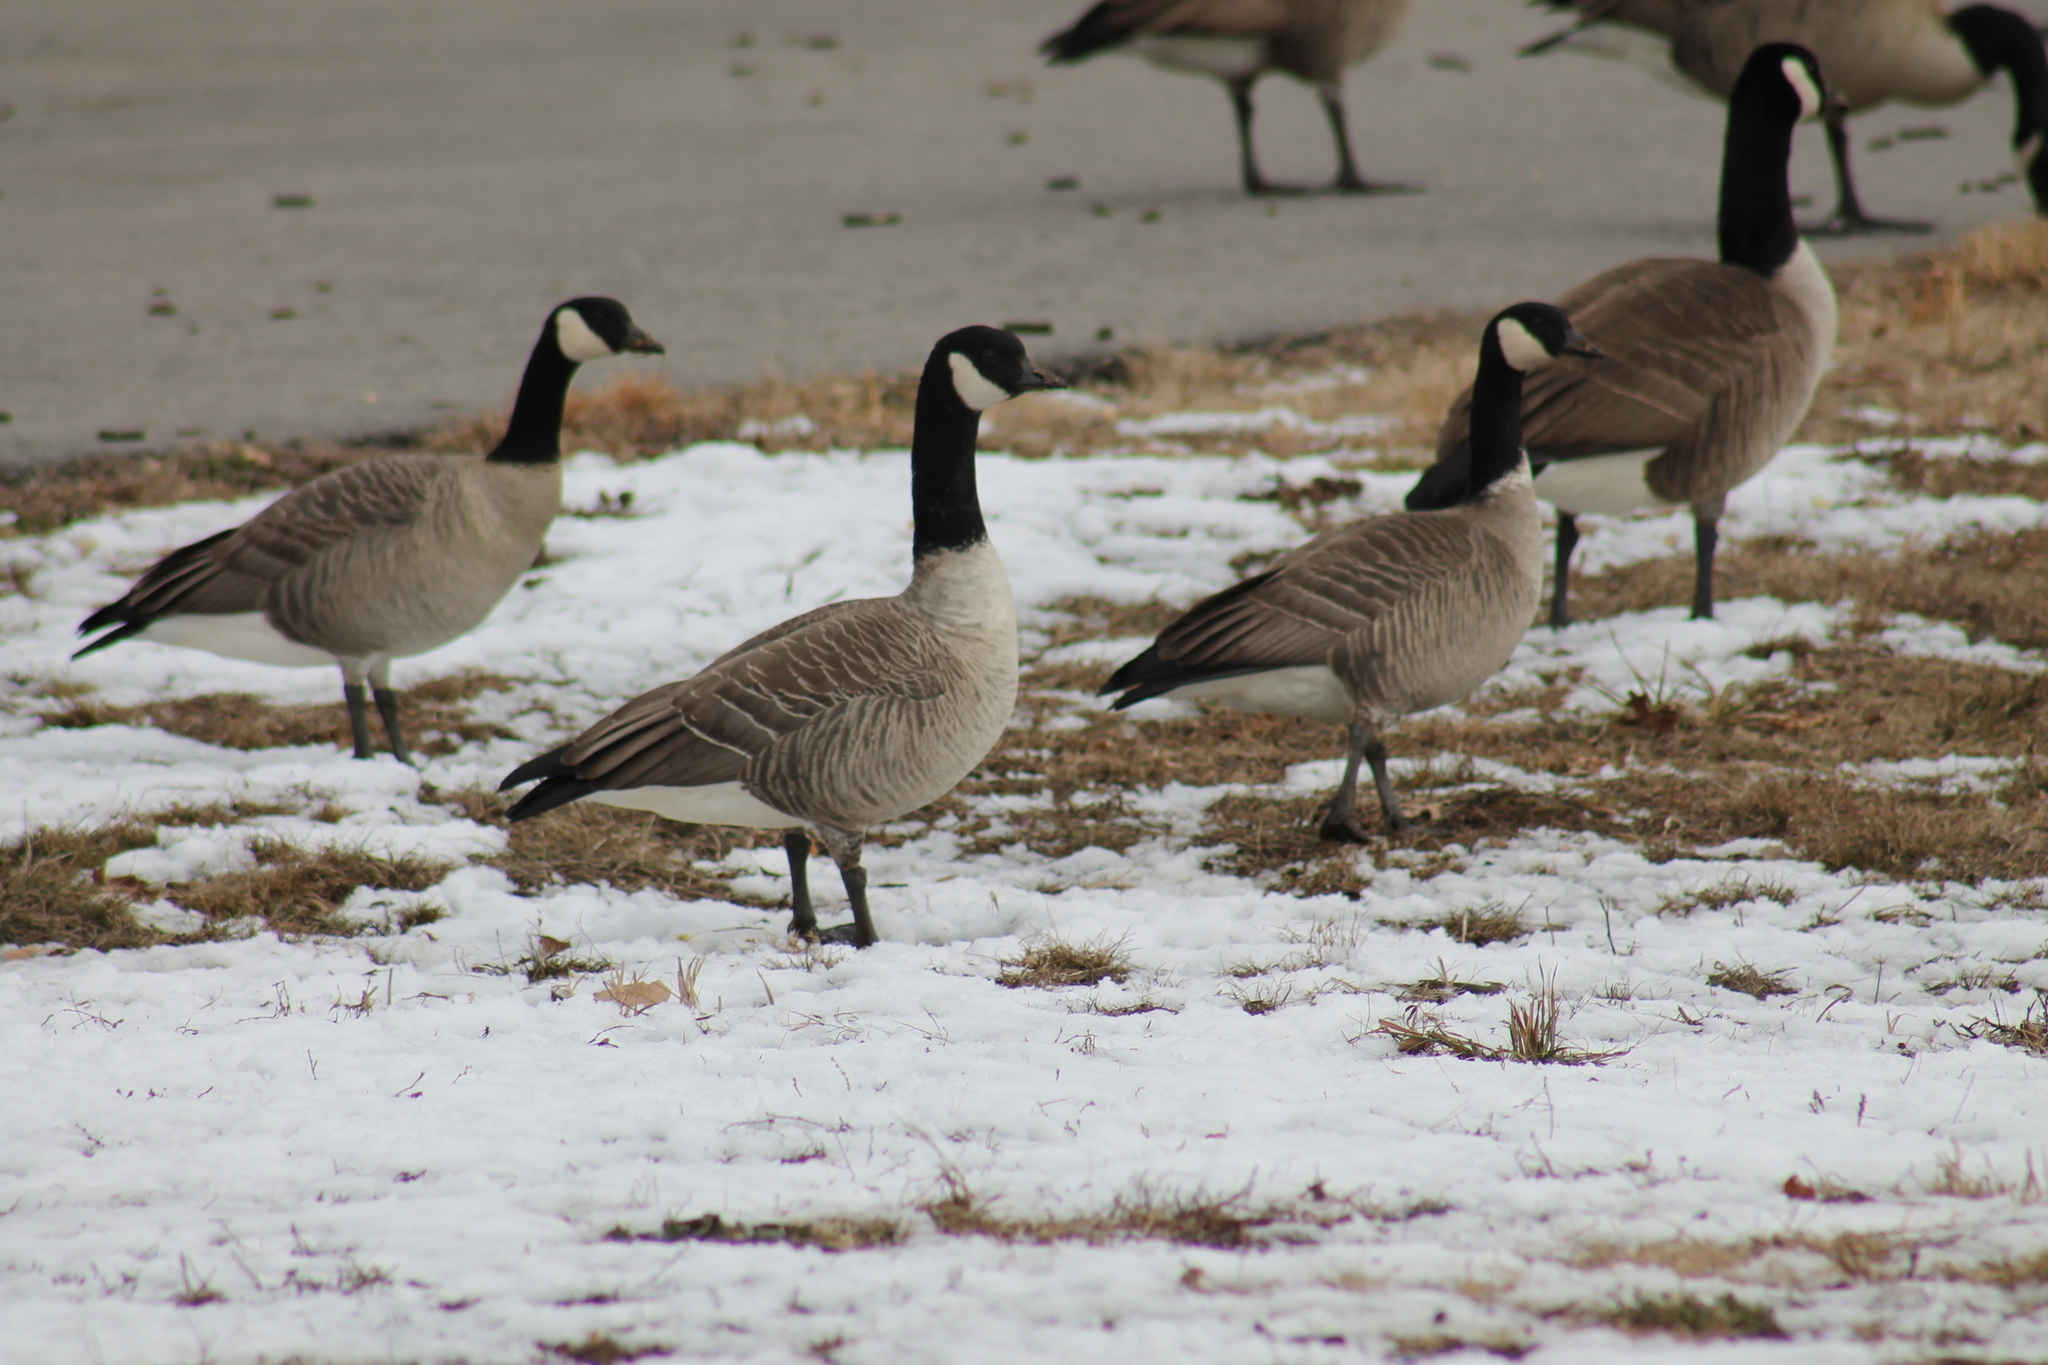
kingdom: Animalia
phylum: Chordata
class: Aves
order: Anseriformes
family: Anatidae
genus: Branta
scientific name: Branta hutchinsii
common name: Cackling goose
